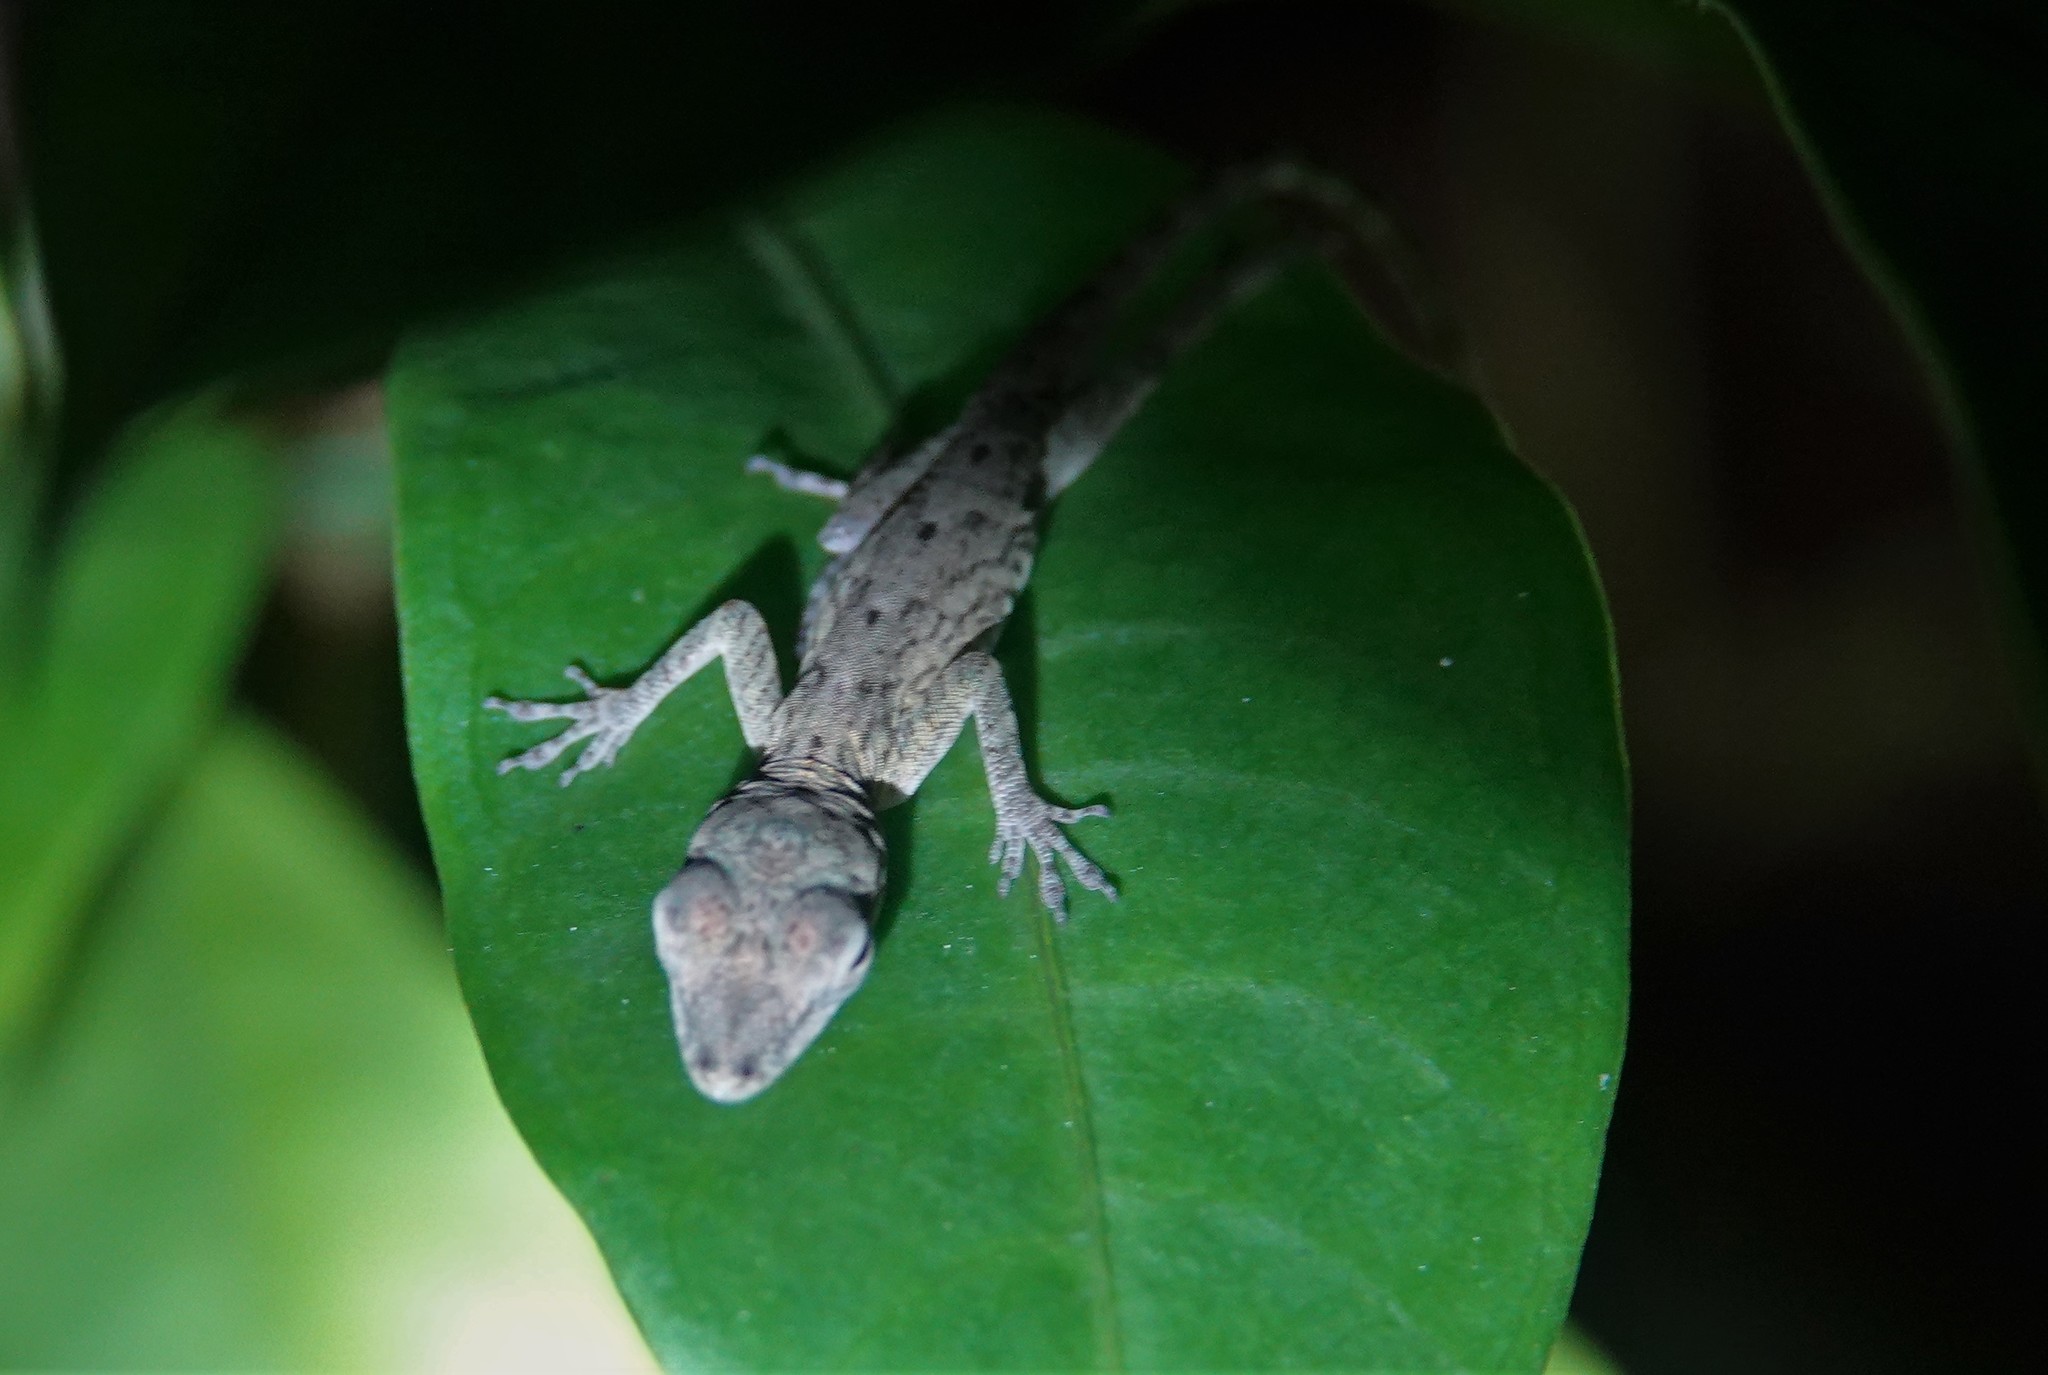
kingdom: Animalia
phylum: Chordata
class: Squamata
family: Dactyloidae
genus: Anolis
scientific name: Anolis aeneus
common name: Bronze anole
